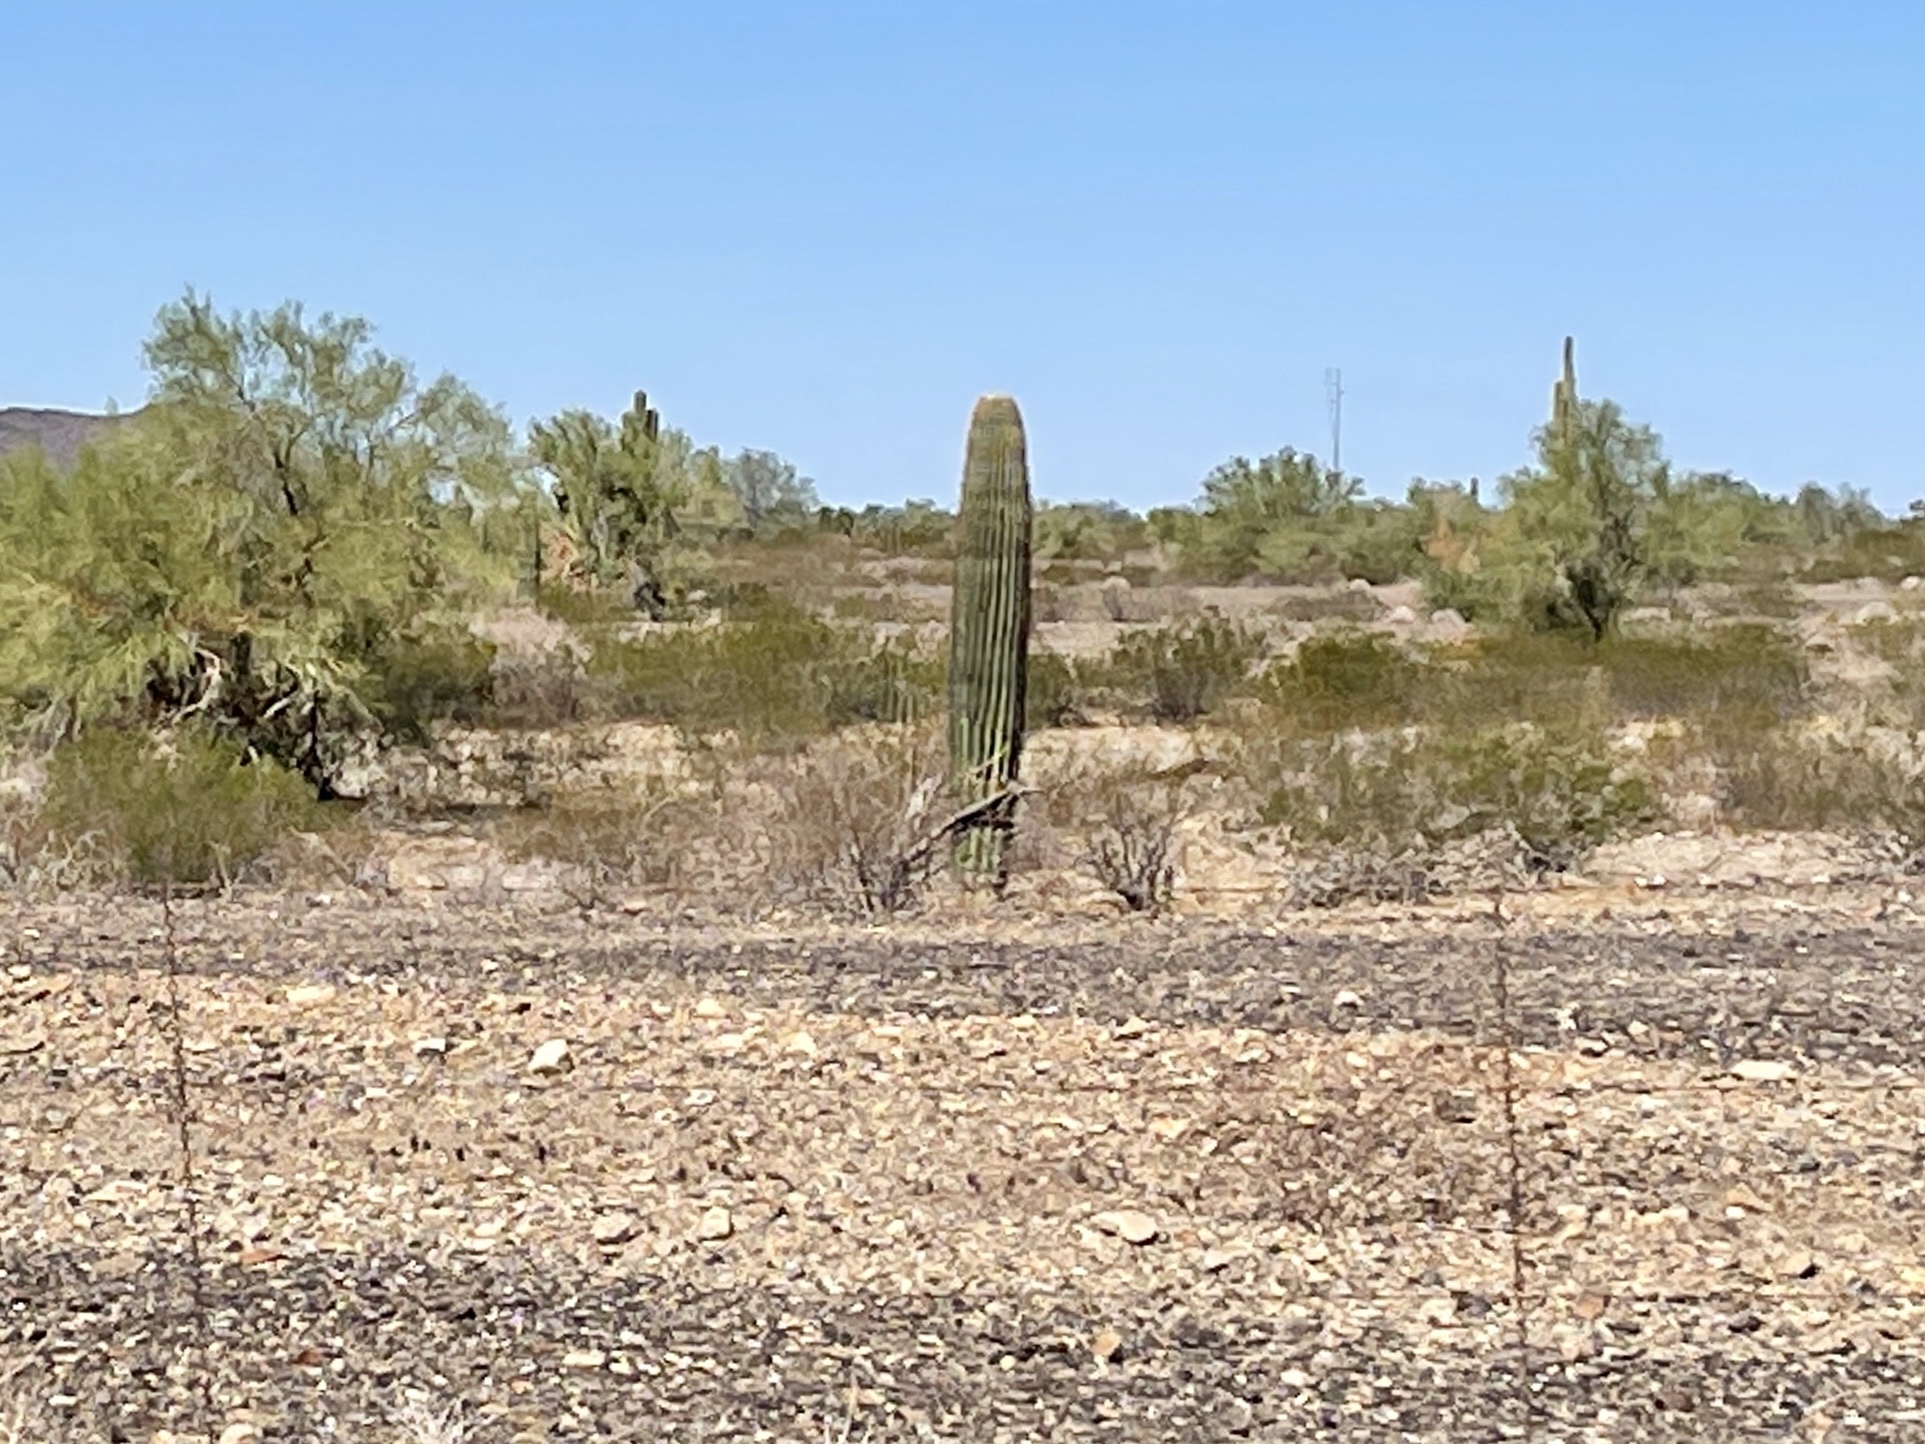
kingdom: Plantae
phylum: Tracheophyta
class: Magnoliopsida
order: Caryophyllales
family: Cactaceae
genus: Carnegiea
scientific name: Carnegiea gigantea
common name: Saguaro
